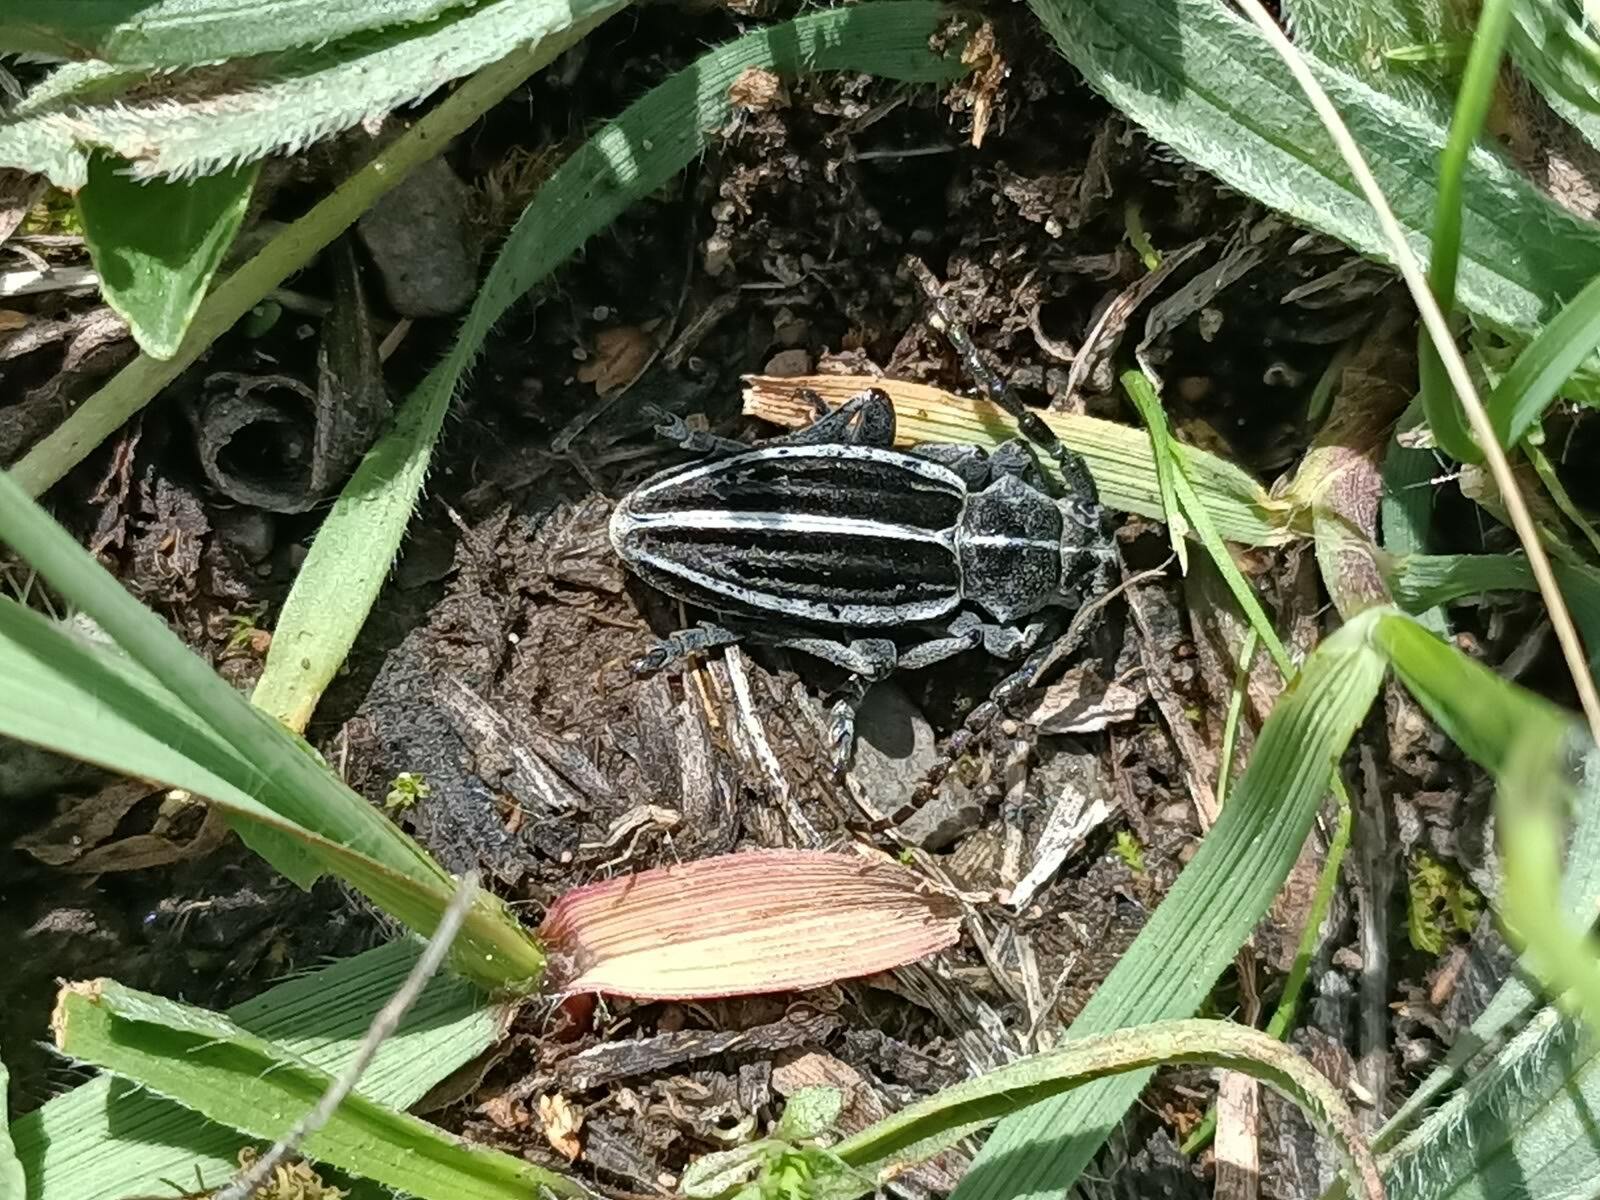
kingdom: Animalia
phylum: Arthropoda
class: Insecta
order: Coleoptera
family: Cerambycidae
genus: Dorcadion
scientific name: Dorcadion holosericeum
